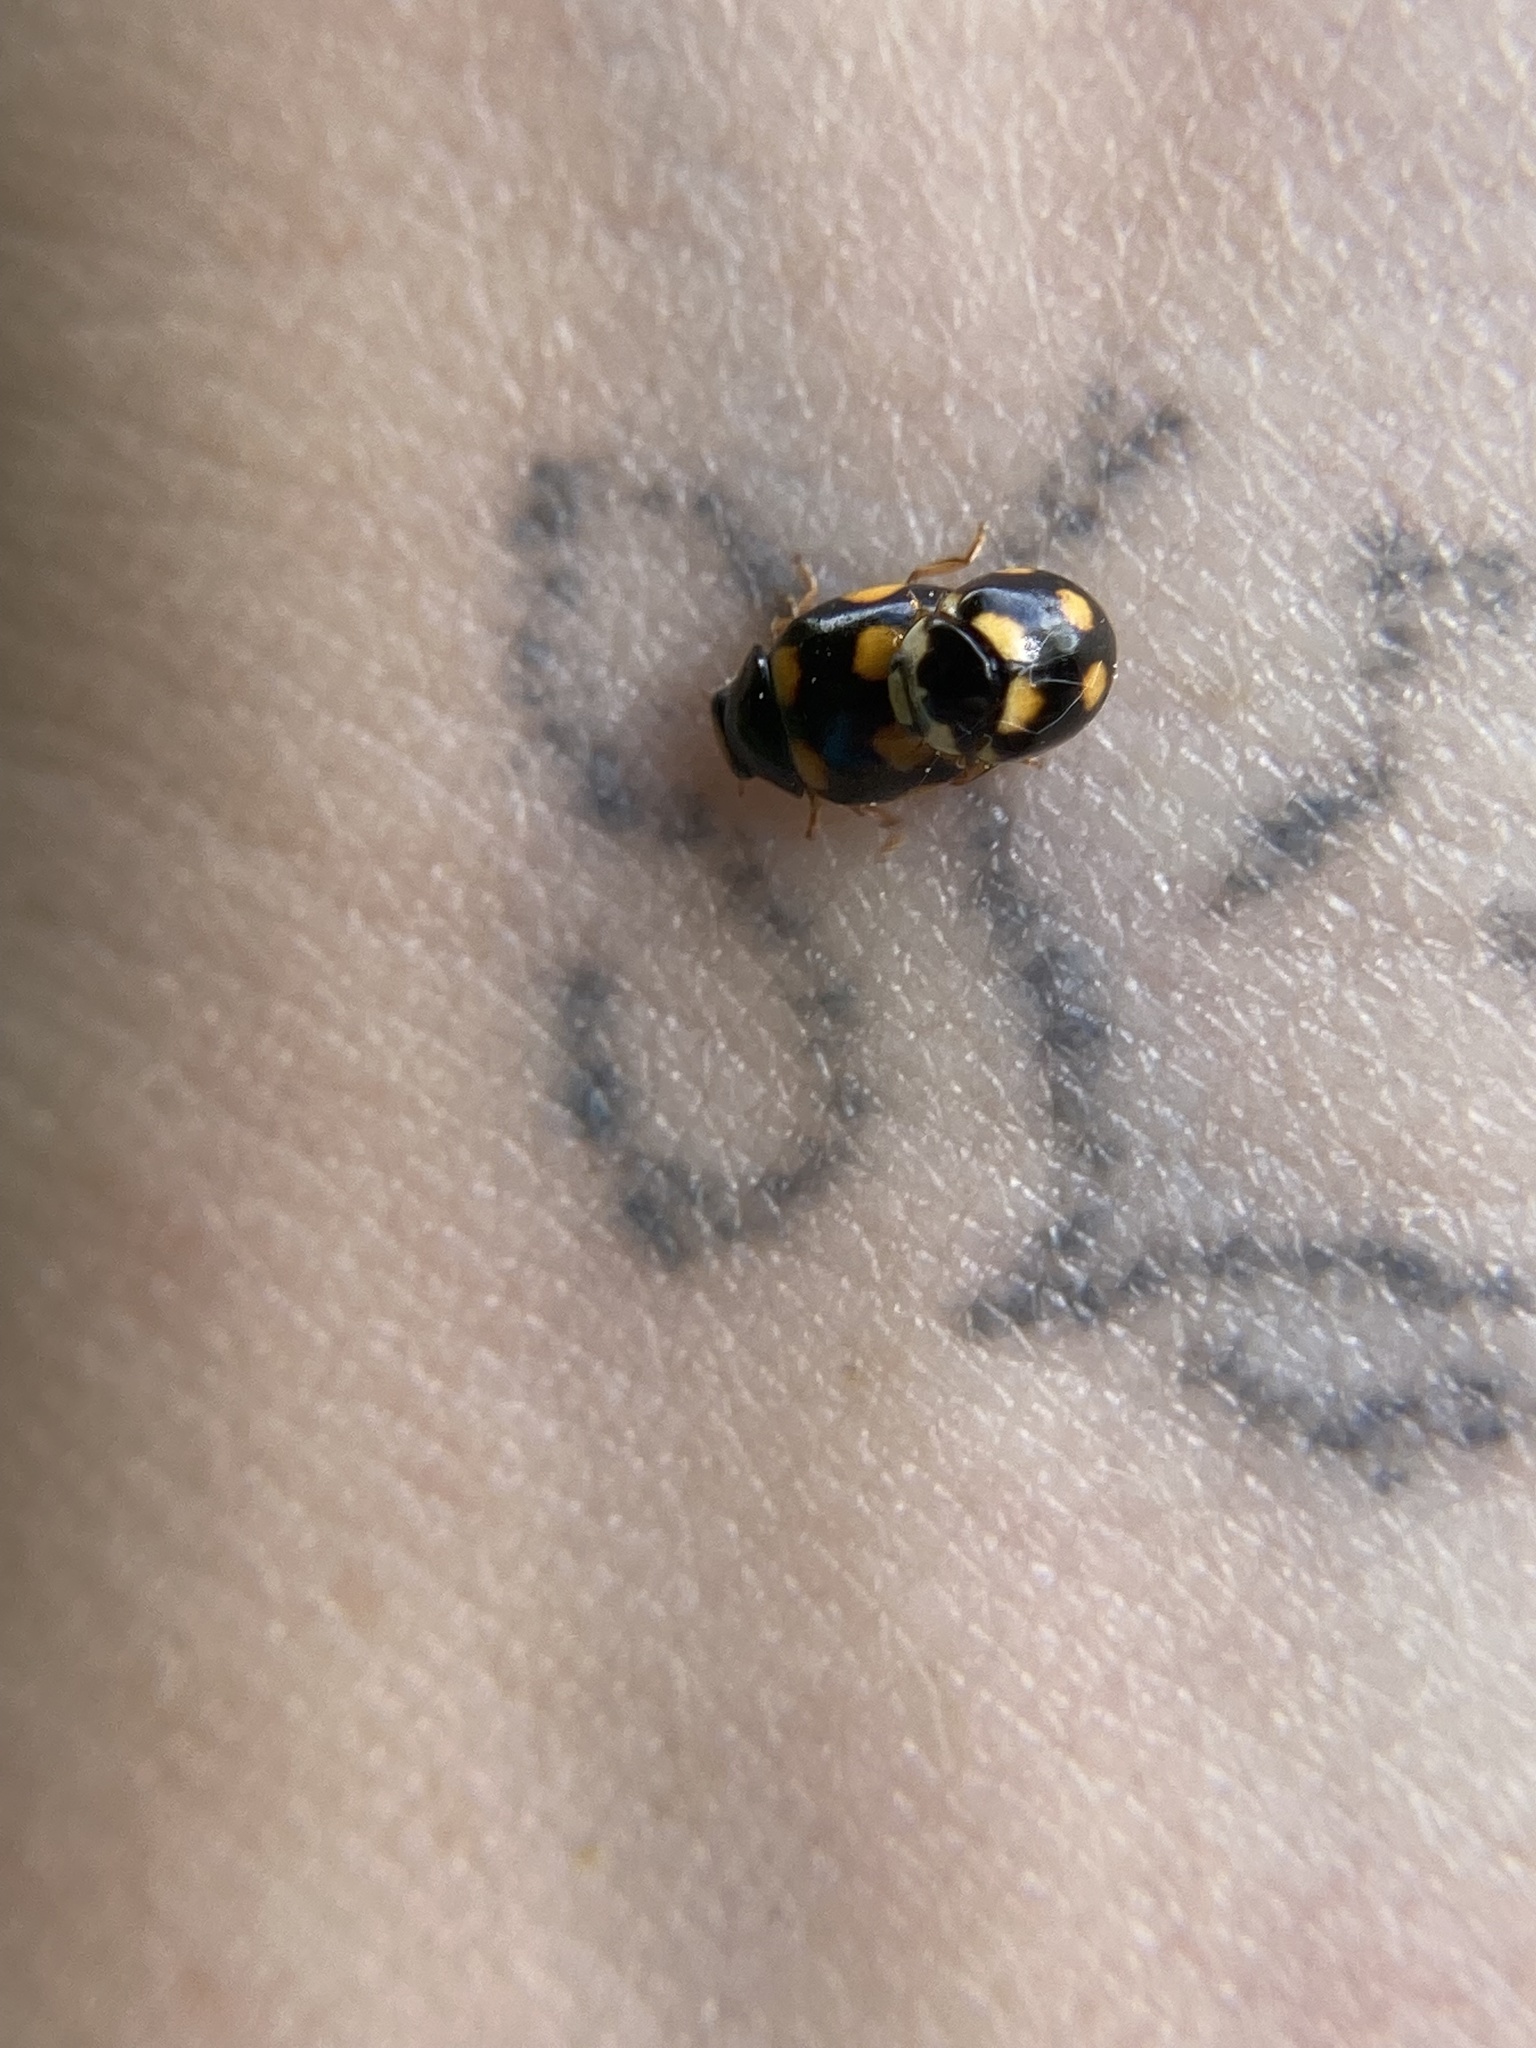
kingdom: Animalia
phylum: Arthropoda
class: Insecta
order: Coleoptera
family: Coccinellidae
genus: Brachiacantha
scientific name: Brachiacantha ursina
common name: Ursine spurleg lady beetle
